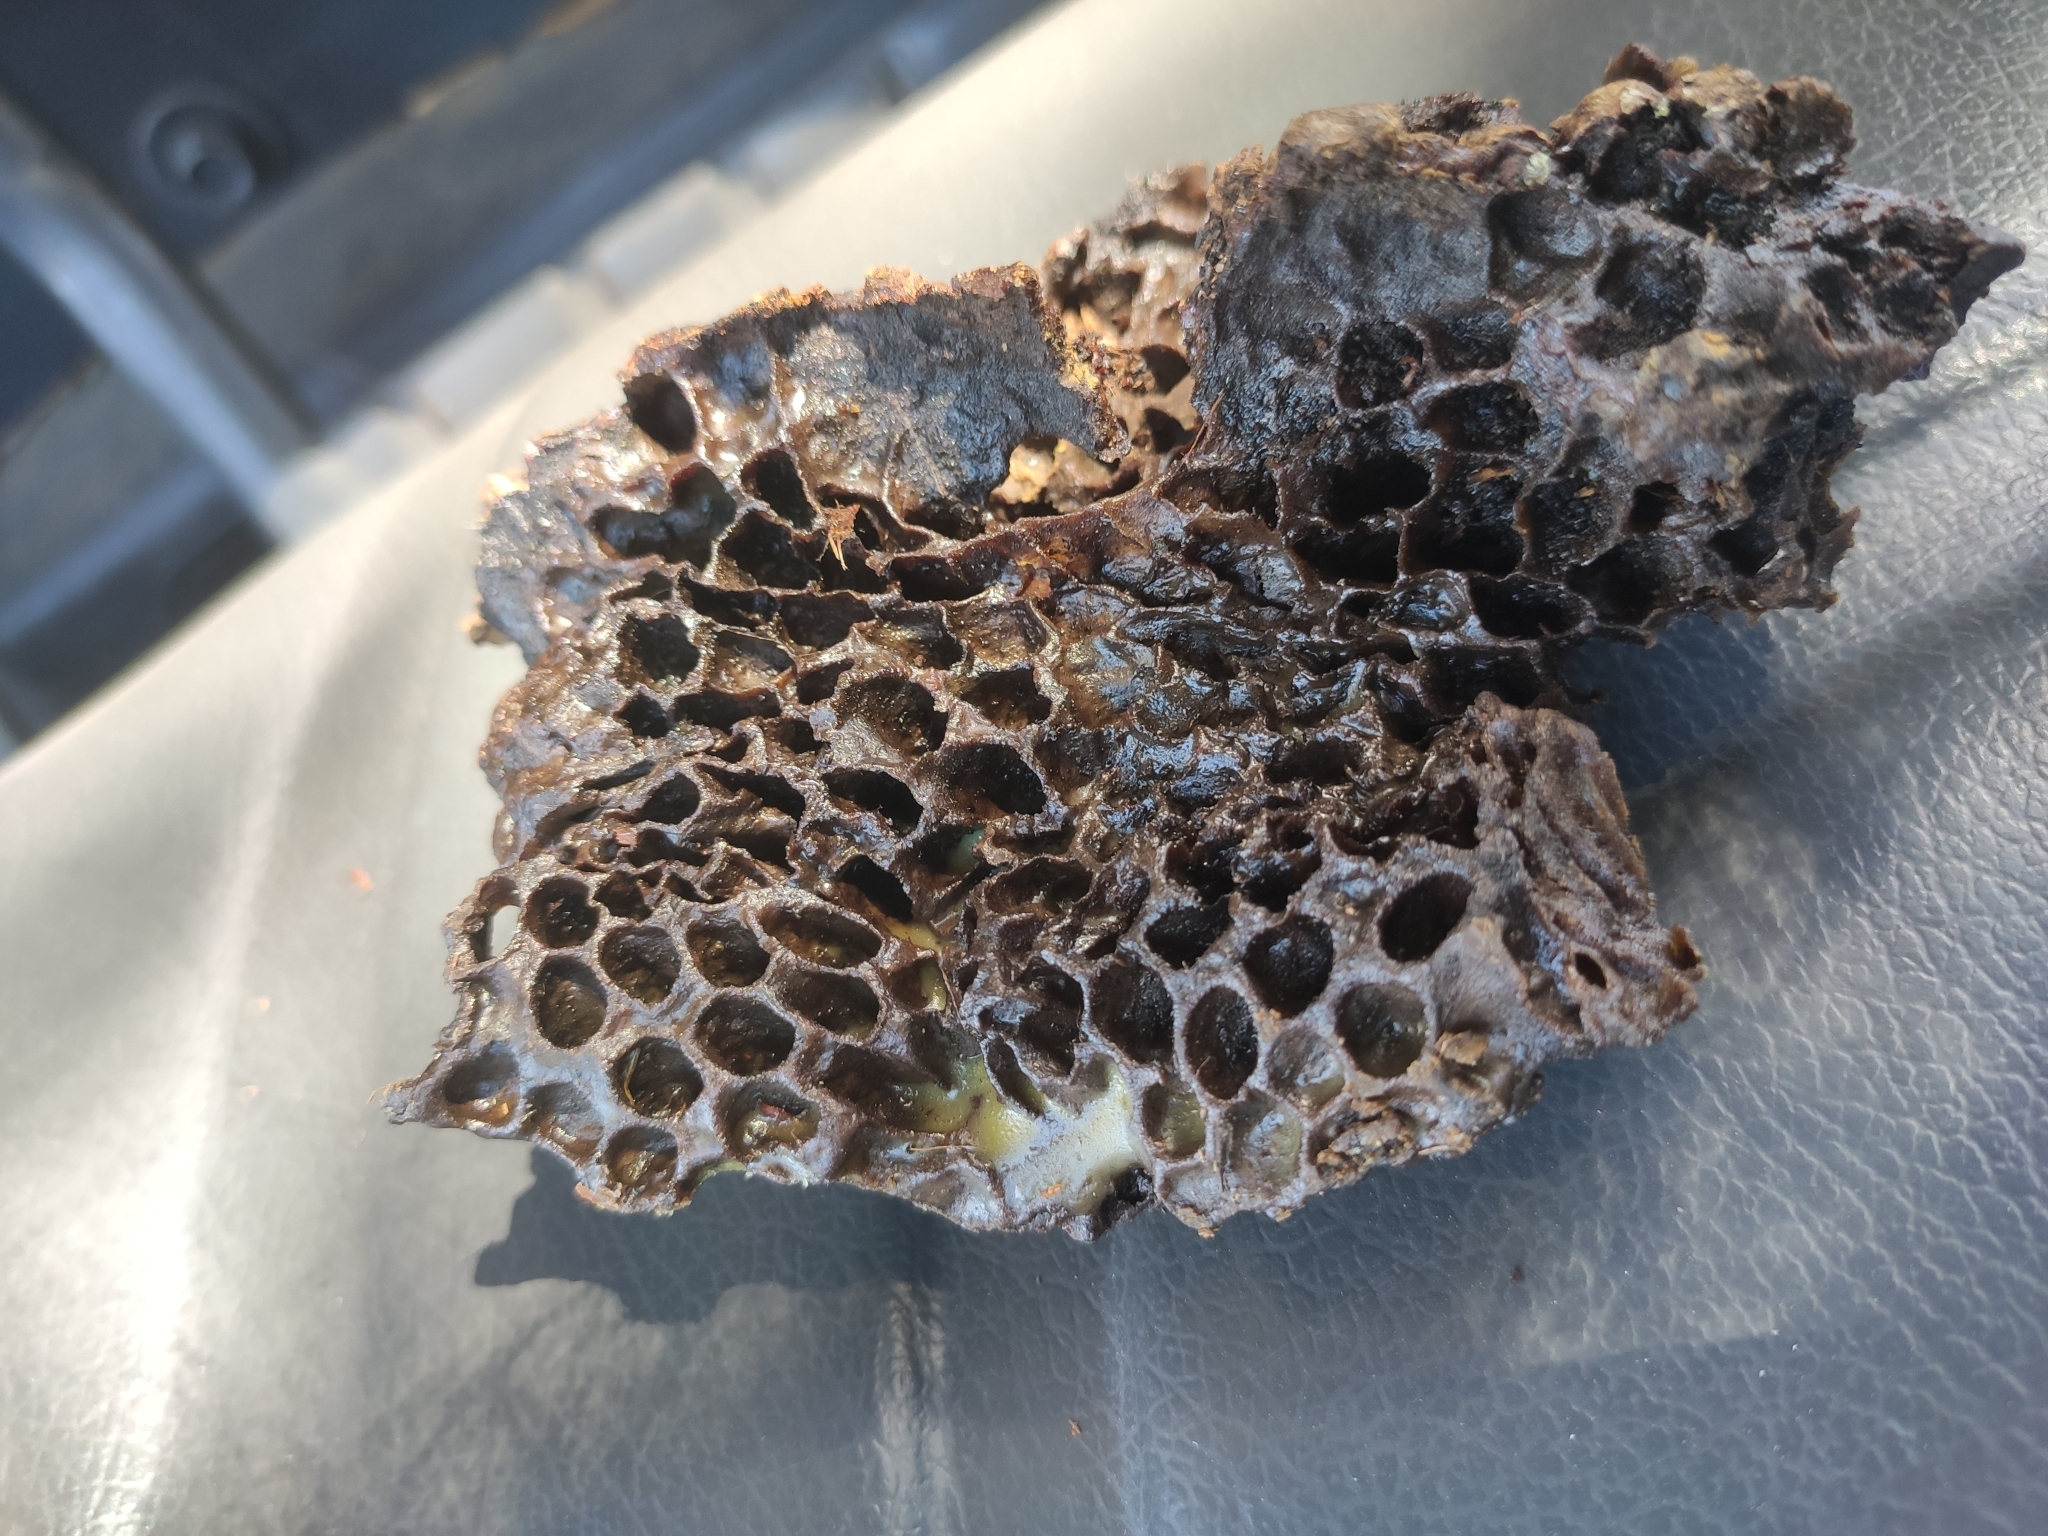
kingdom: Animalia
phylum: Arthropoda
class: Insecta
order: Hymenoptera
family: Apidae
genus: Apis
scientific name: Apis mellifera
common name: Honey bee
